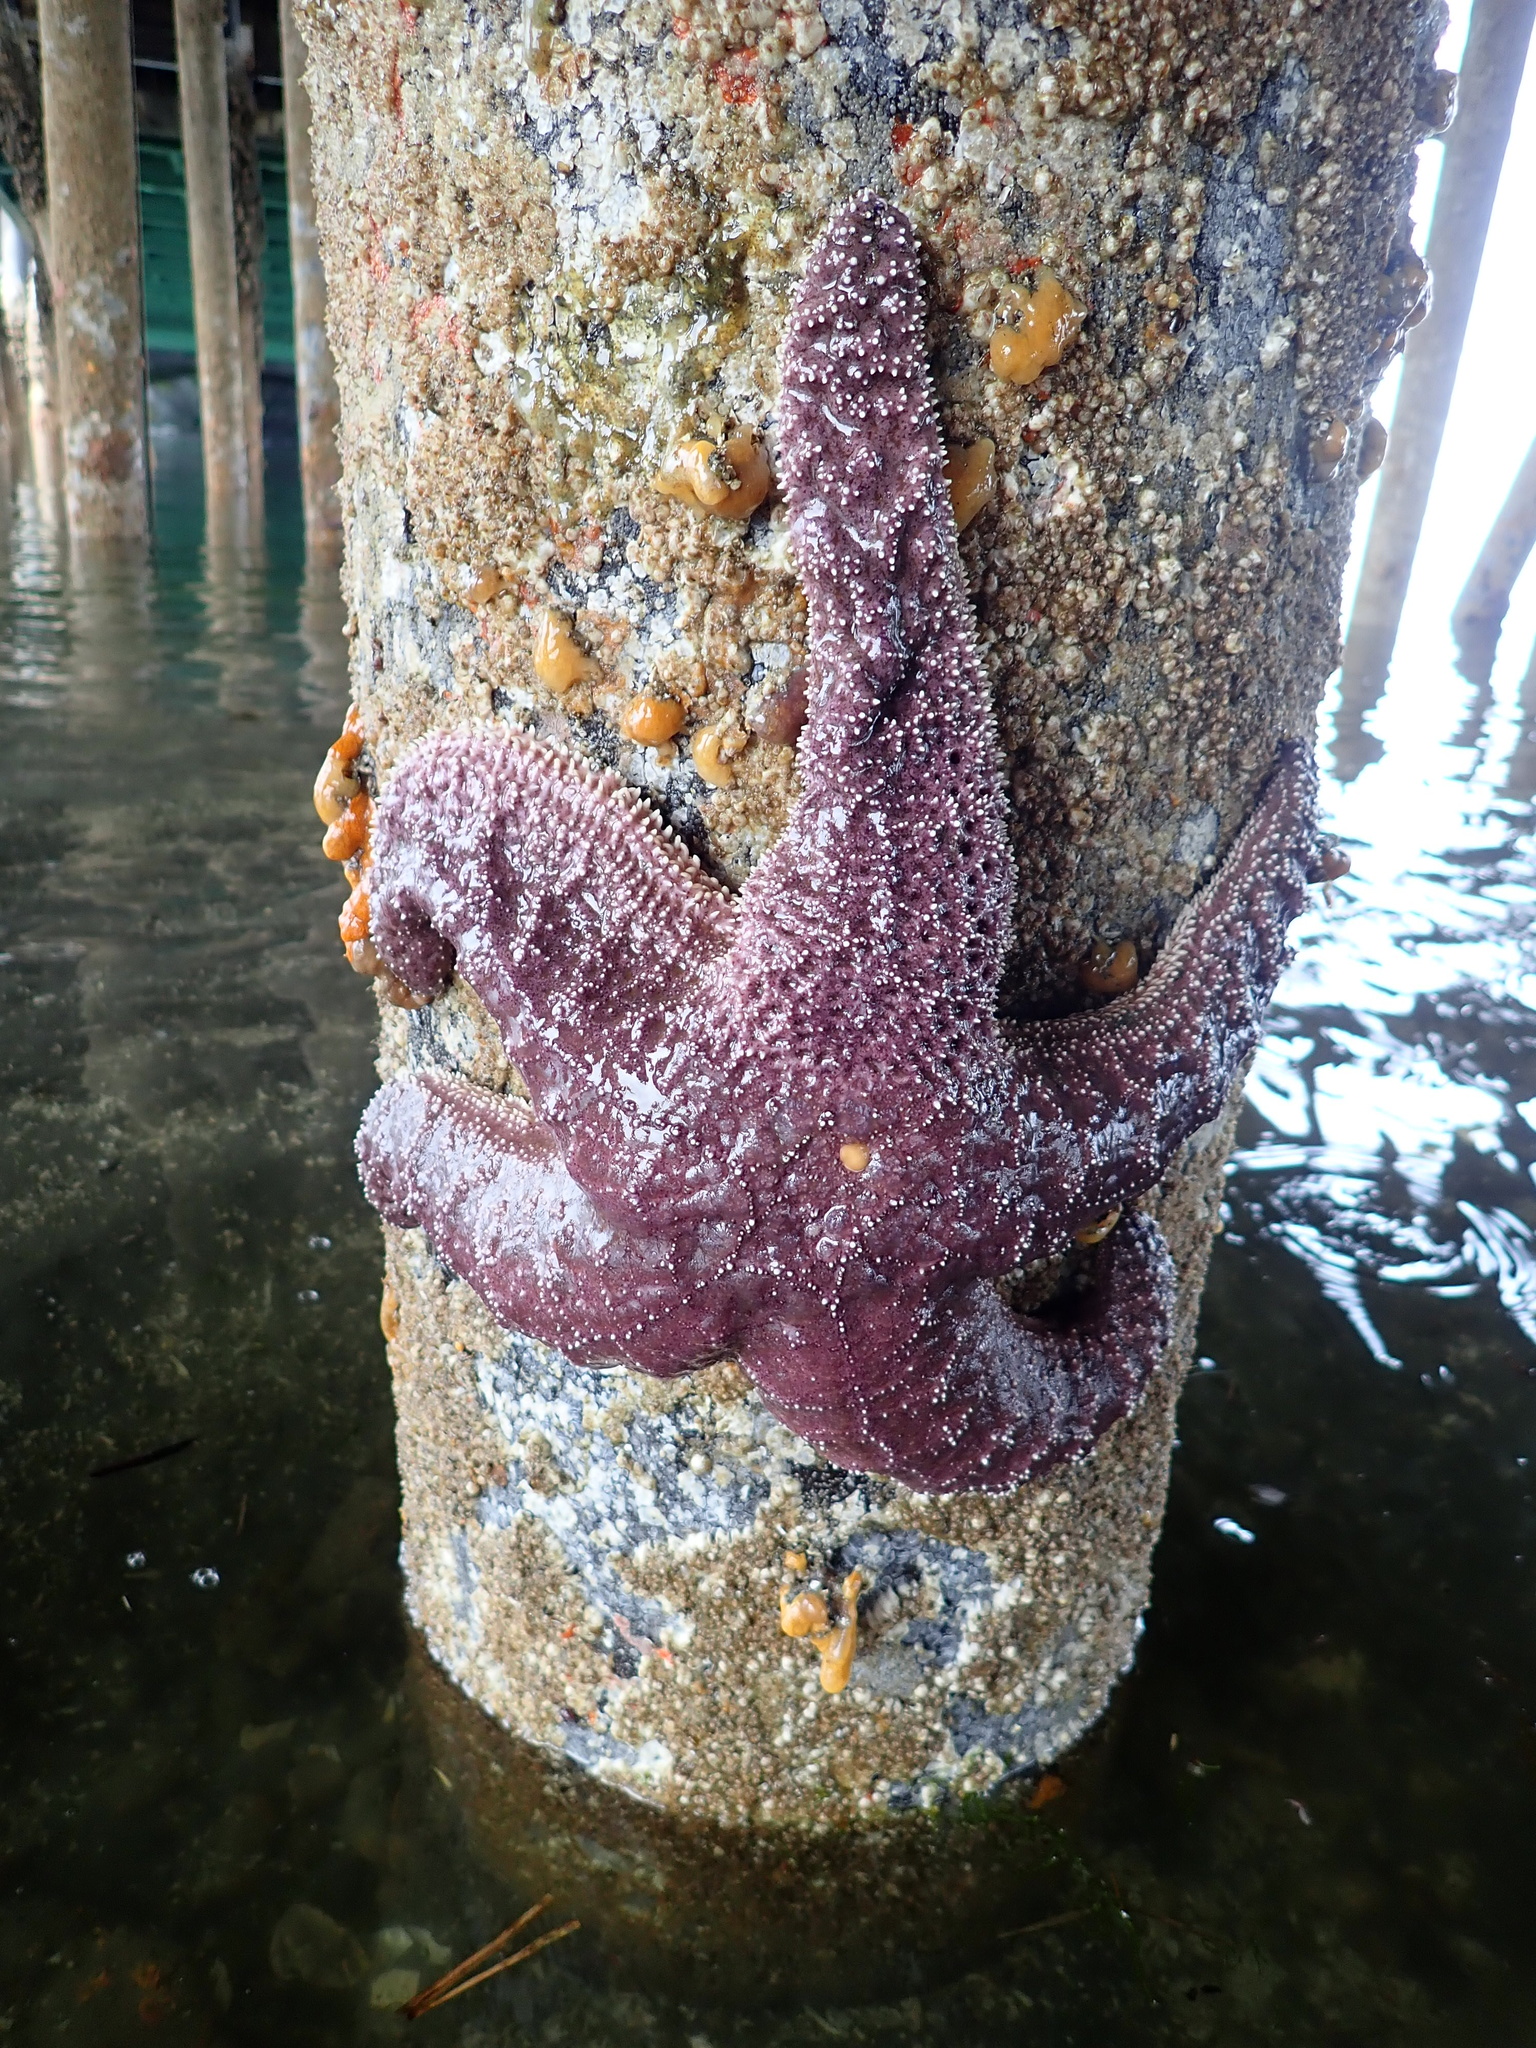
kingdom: Animalia
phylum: Echinodermata
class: Asteroidea
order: Forcipulatida
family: Asteriidae
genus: Pisaster
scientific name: Pisaster ochraceus
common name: Ochre stars
